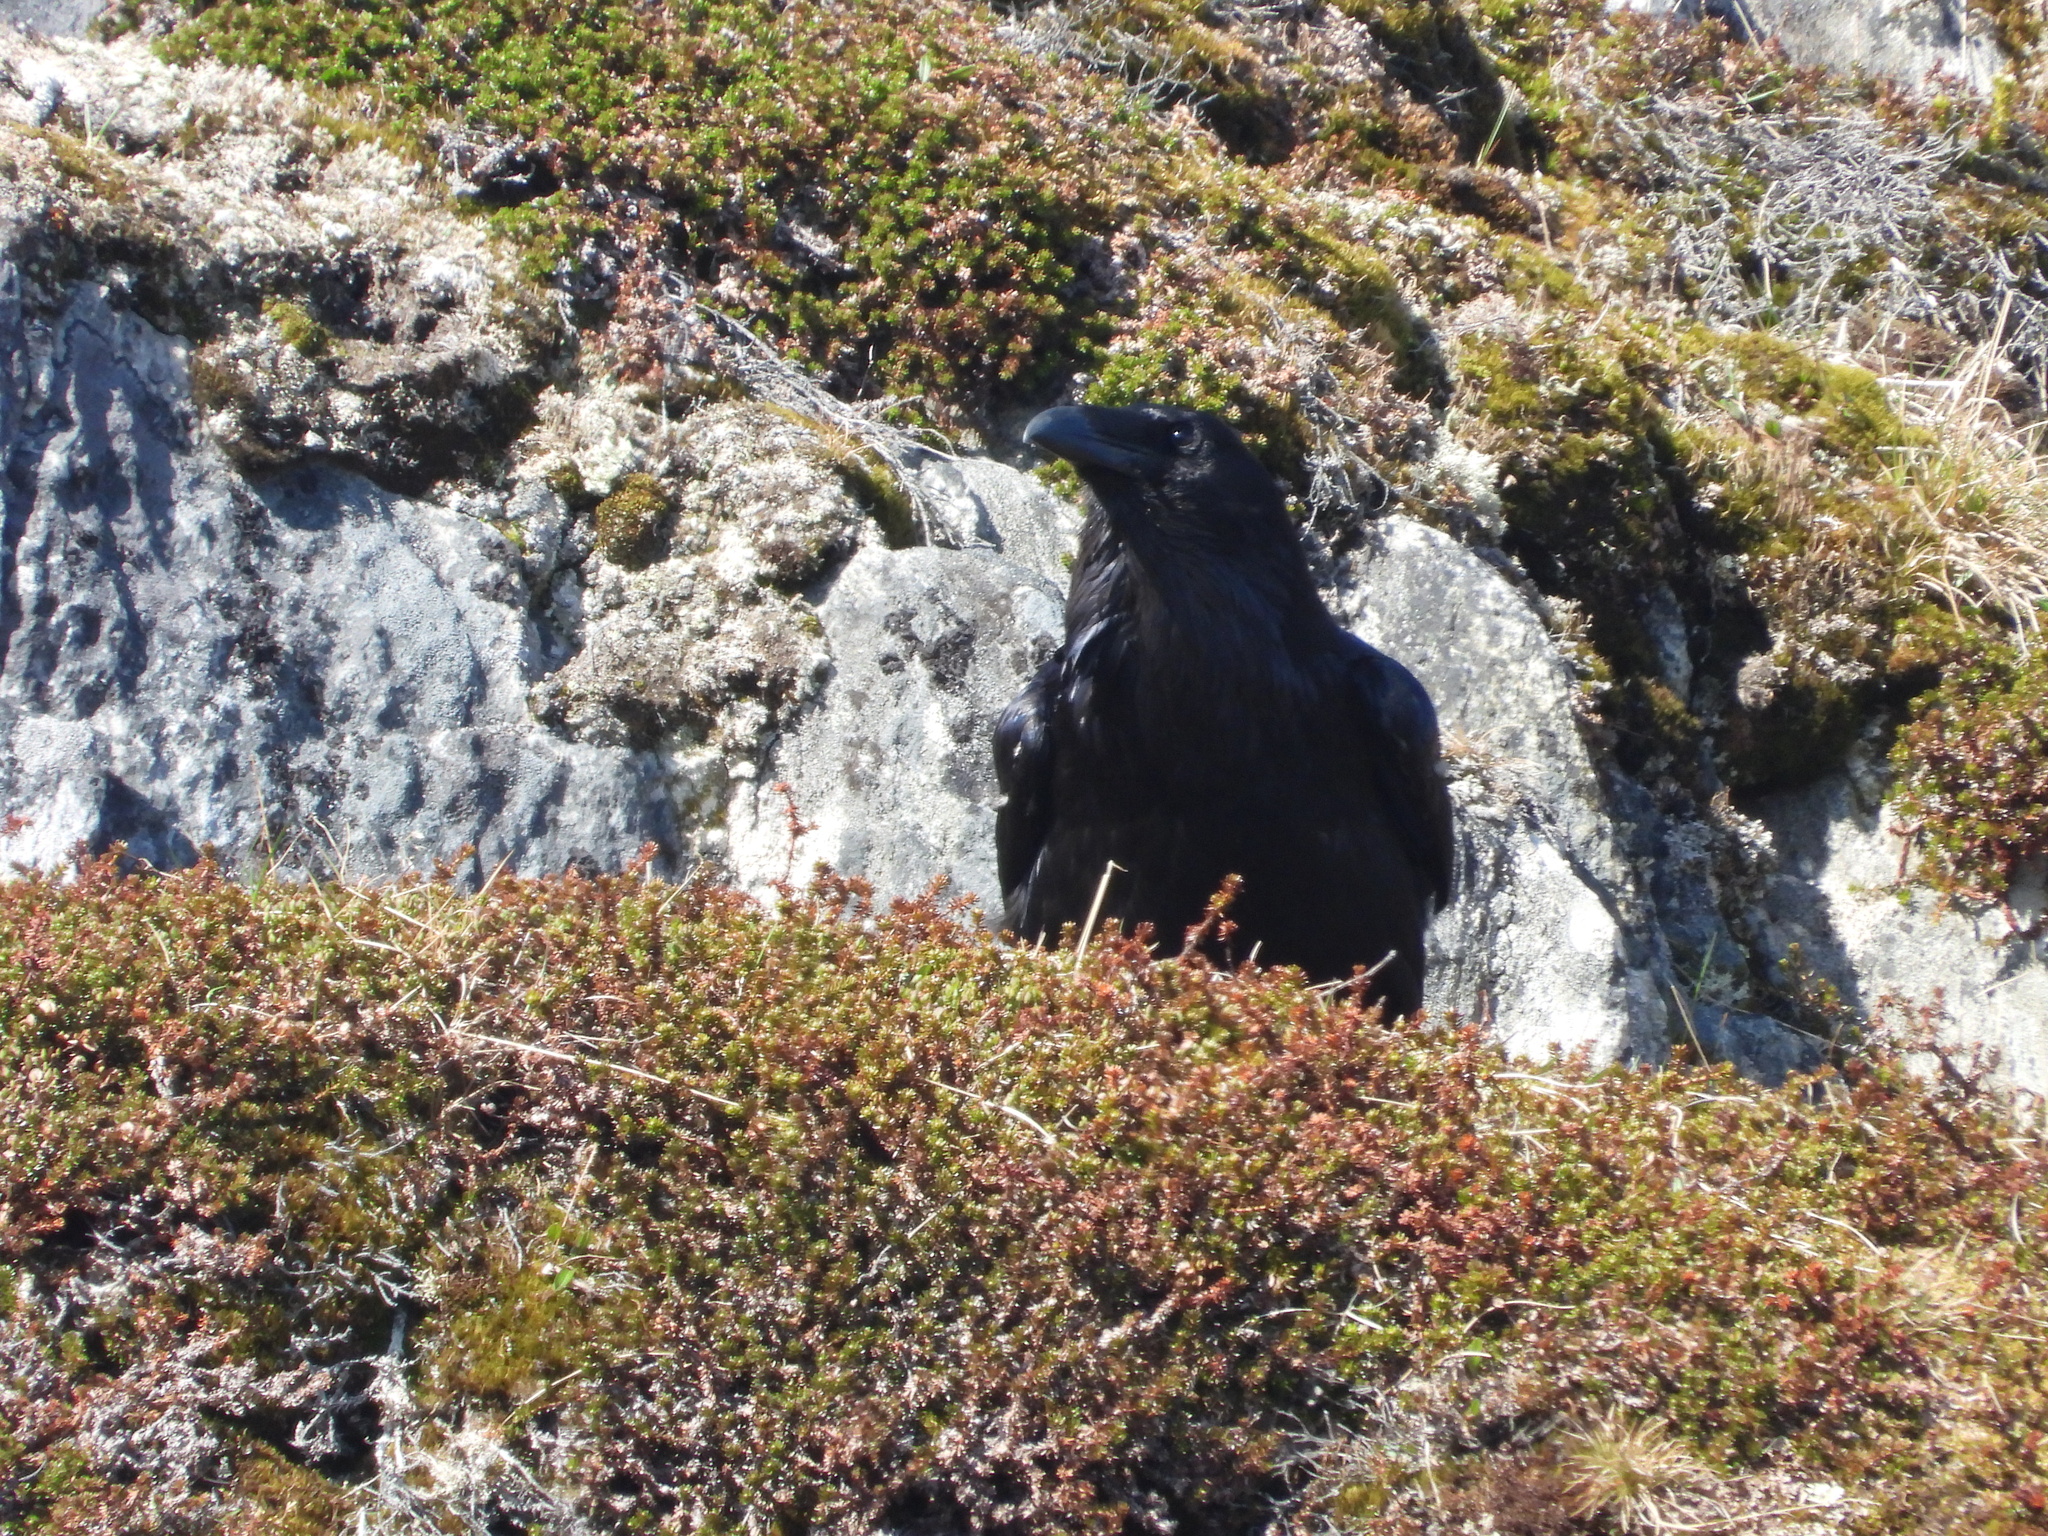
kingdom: Animalia
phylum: Chordata
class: Aves
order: Passeriformes
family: Corvidae
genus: Corvus
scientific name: Corvus corax
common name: Common raven
